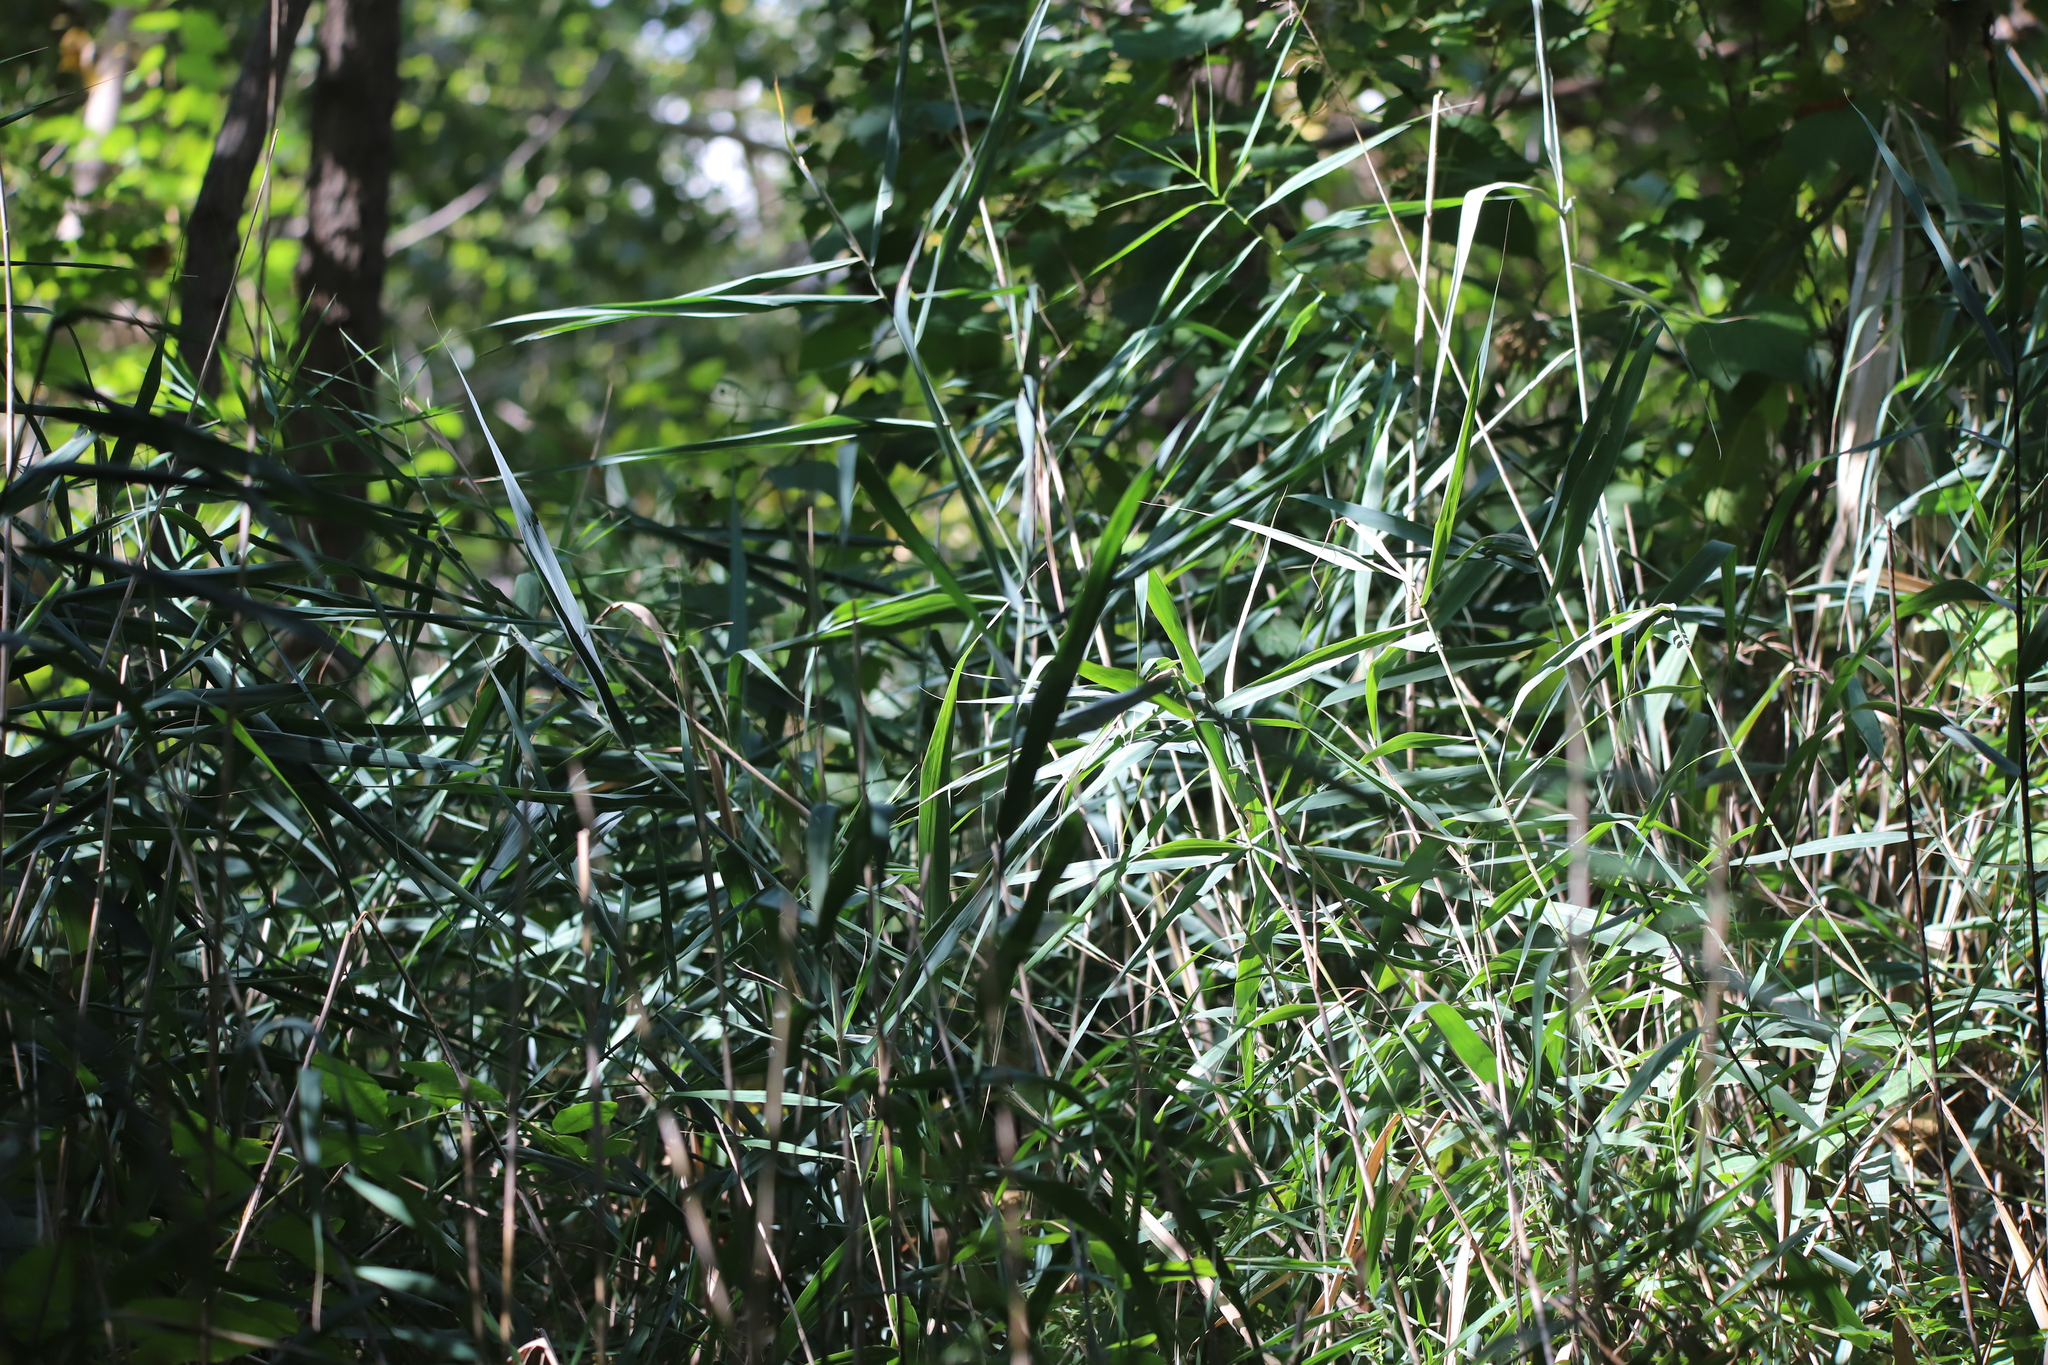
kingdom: Plantae
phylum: Tracheophyta
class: Liliopsida
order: Poales
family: Poaceae
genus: Phragmites
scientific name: Phragmites australis
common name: Common reed
